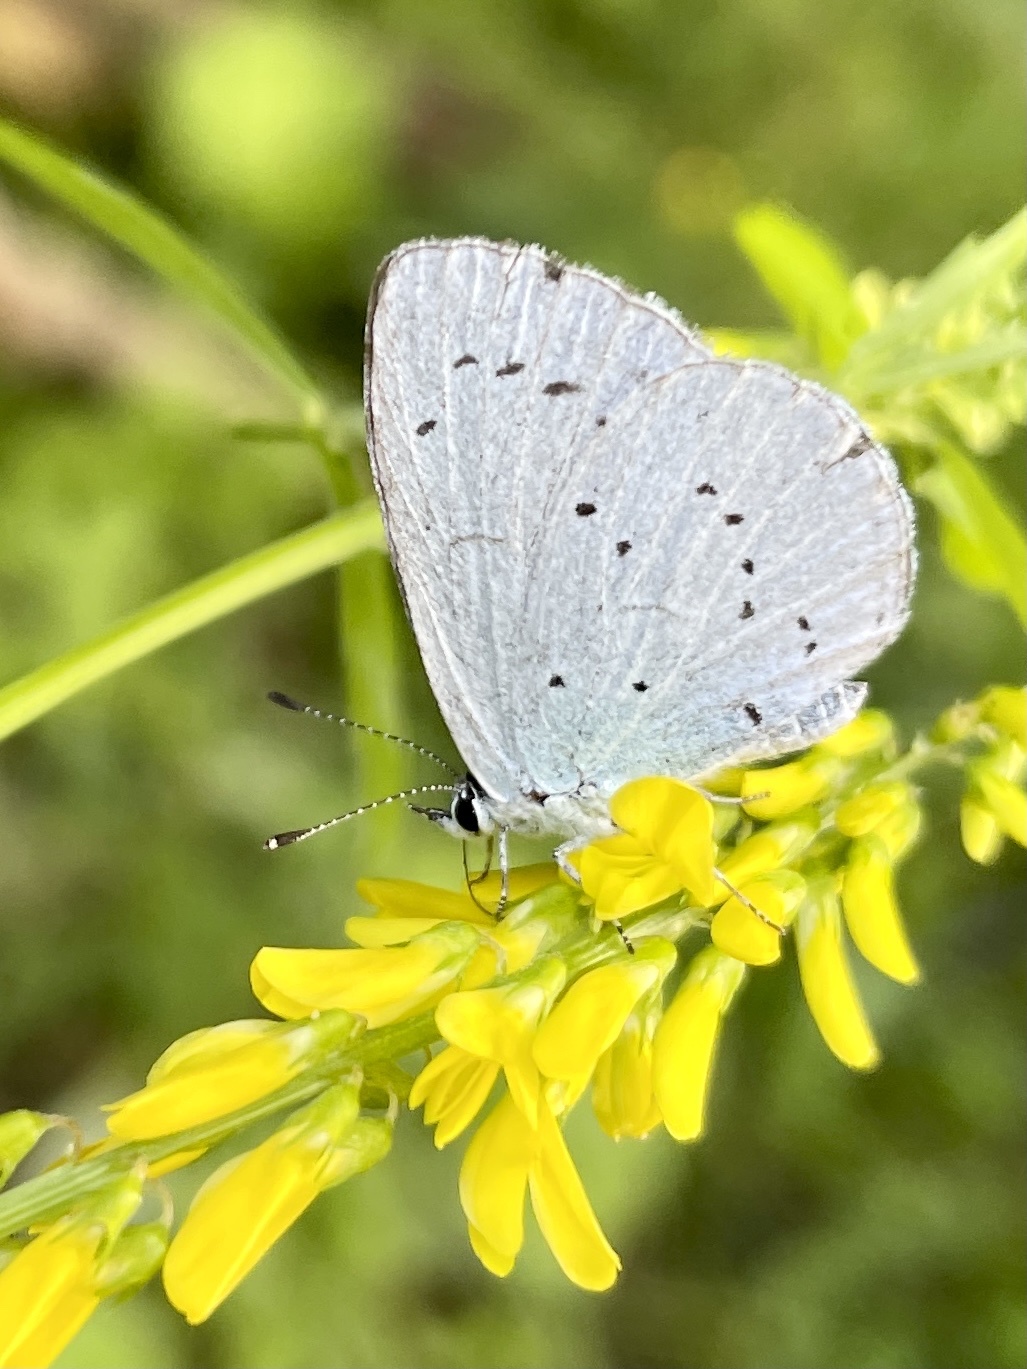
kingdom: Animalia
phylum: Arthropoda
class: Insecta
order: Lepidoptera
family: Lycaenidae
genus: Celastrina
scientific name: Celastrina argiolus
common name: Holly blue
